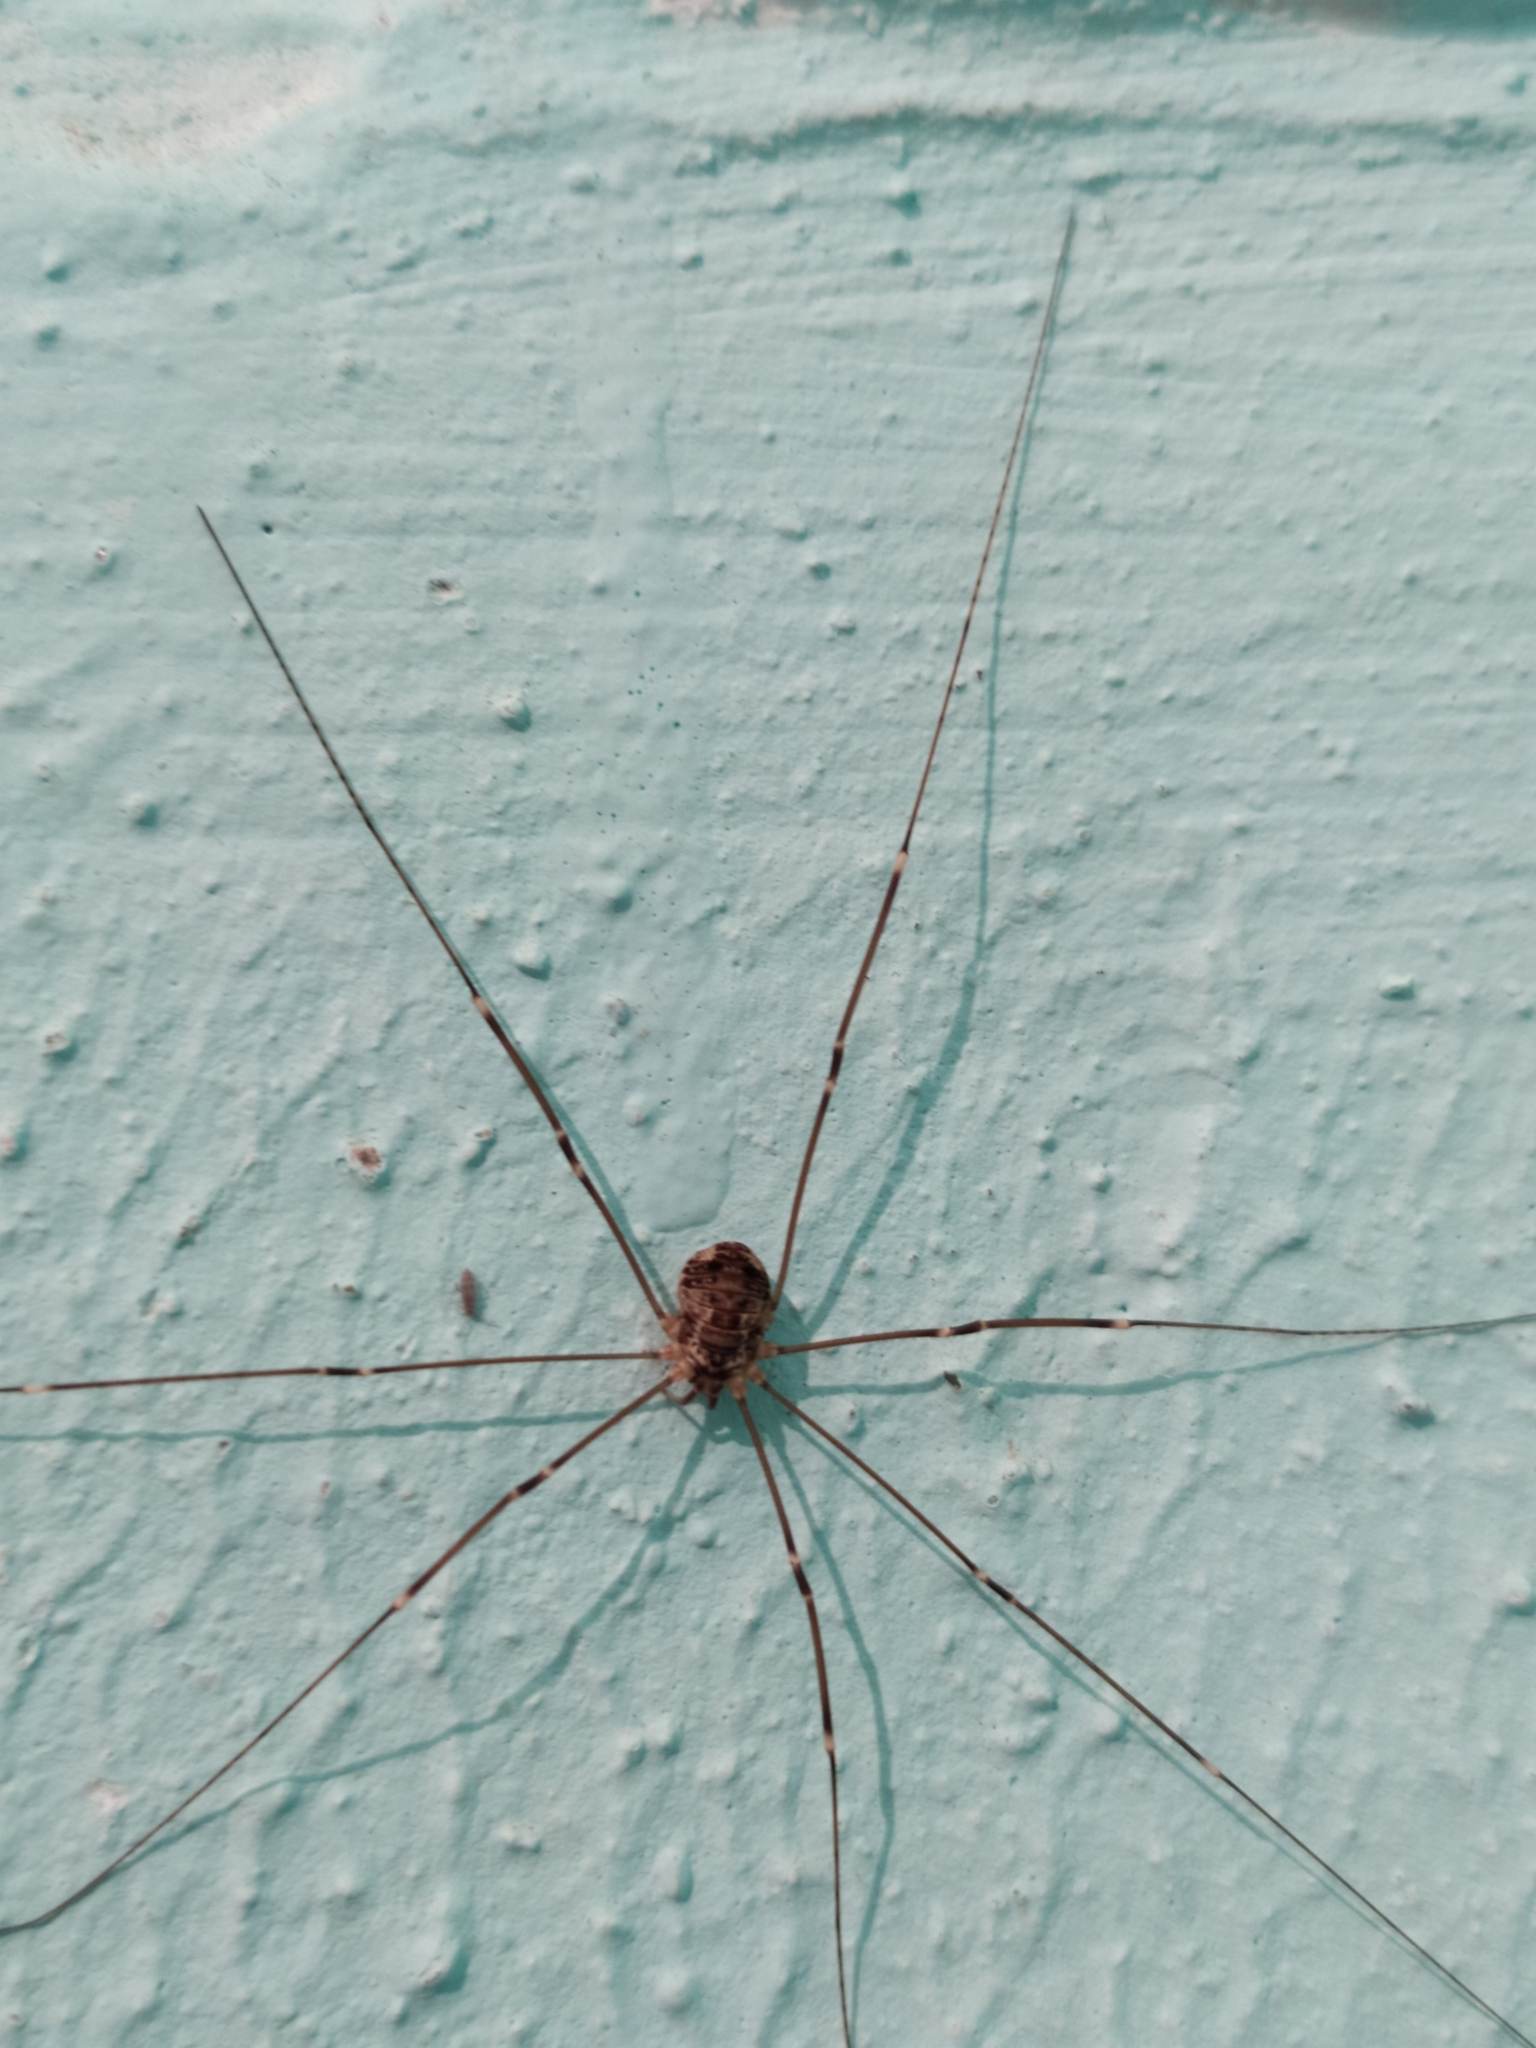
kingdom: Animalia
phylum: Arthropoda
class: Arachnida
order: Opiliones
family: Sclerosomatidae
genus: Leiobunum
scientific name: Leiobunum gracile
